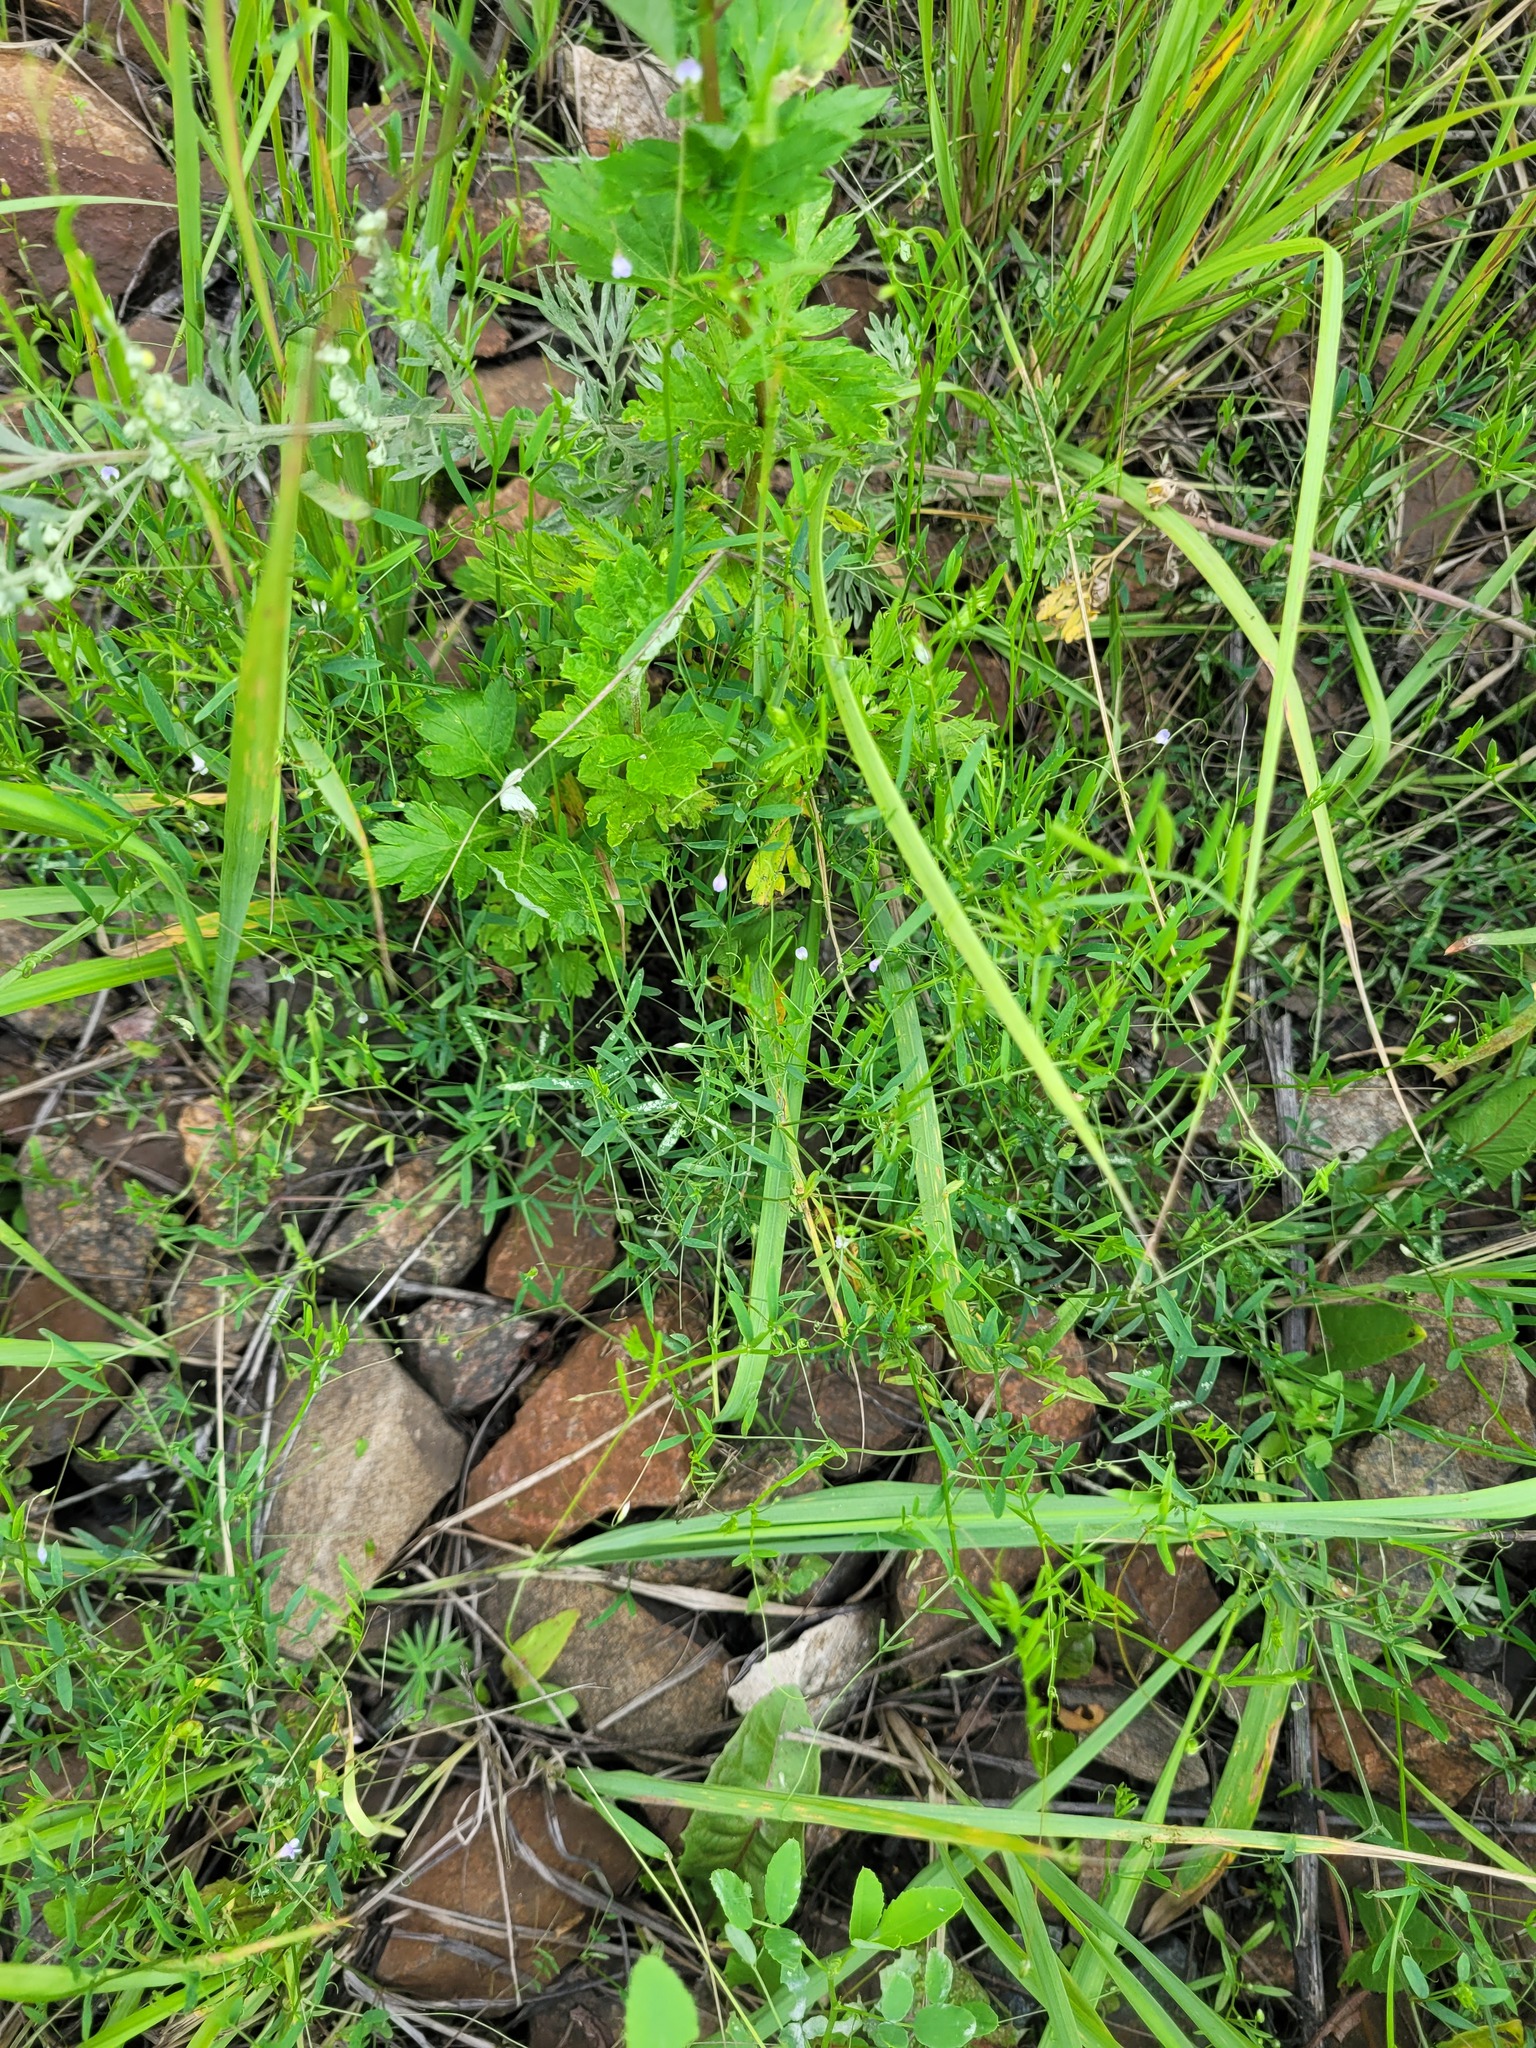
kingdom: Plantae
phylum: Tracheophyta
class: Magnoliopsida
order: Fabales
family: Fabaceae
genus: Vicia
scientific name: Vicia tetrasperma
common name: Smooth tare
